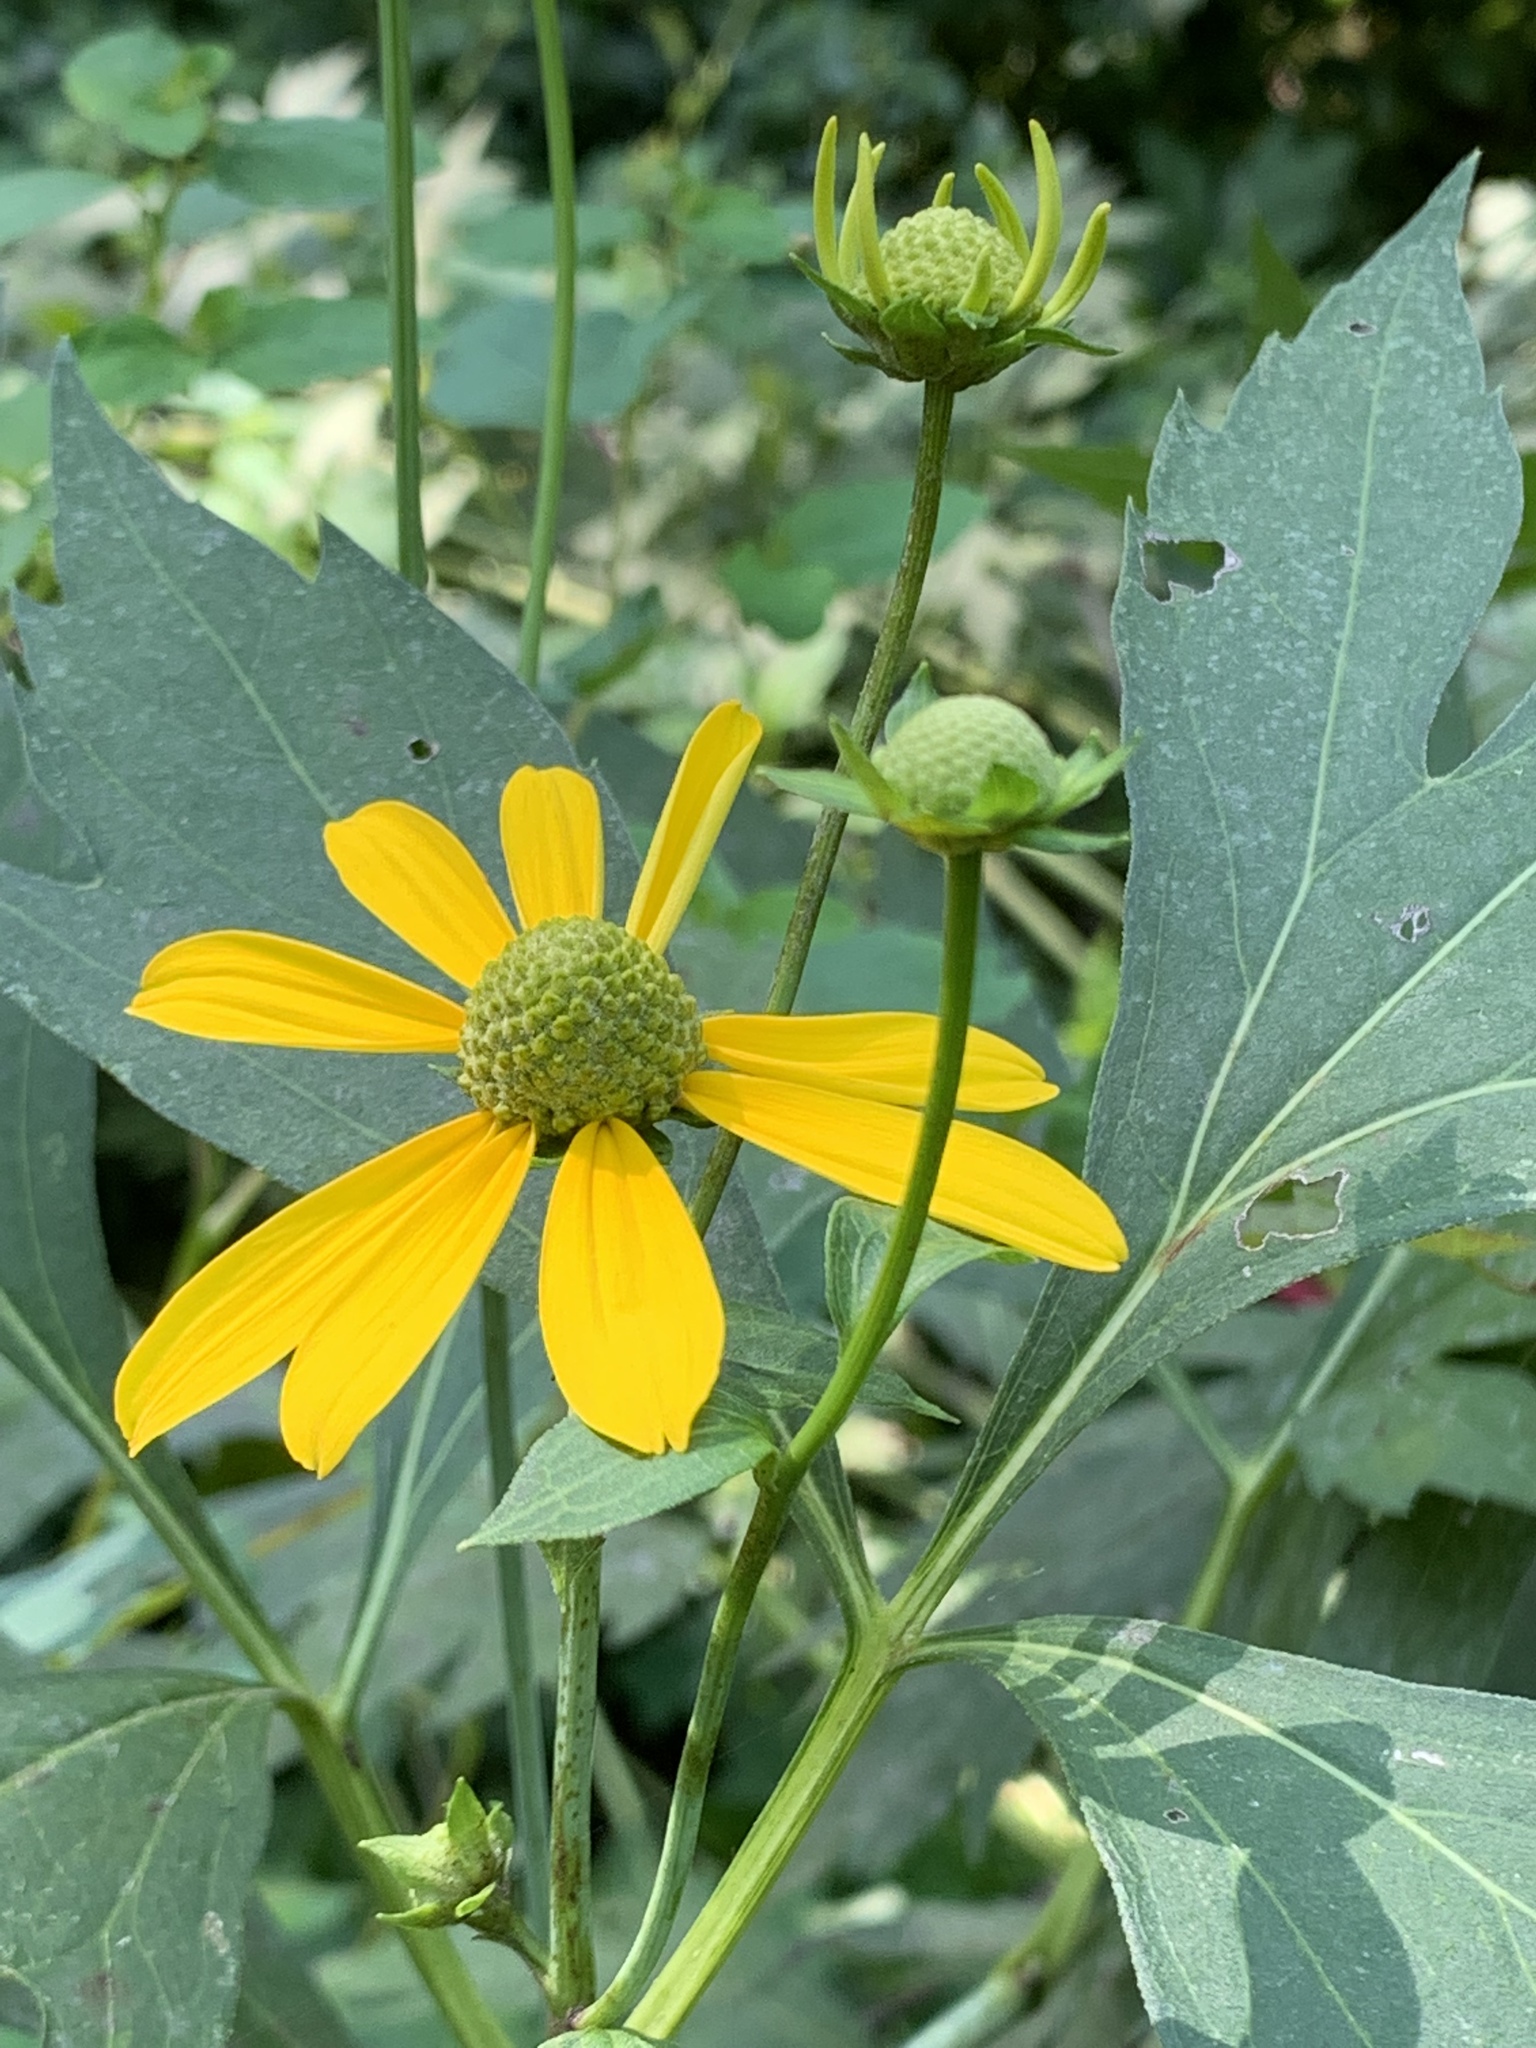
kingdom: Plantae
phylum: Tracheophyta
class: Magnoliopsida
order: Asterales
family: Asteraceae
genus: Rudbeckia
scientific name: Rudbeckia laciniata
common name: Coneflower
